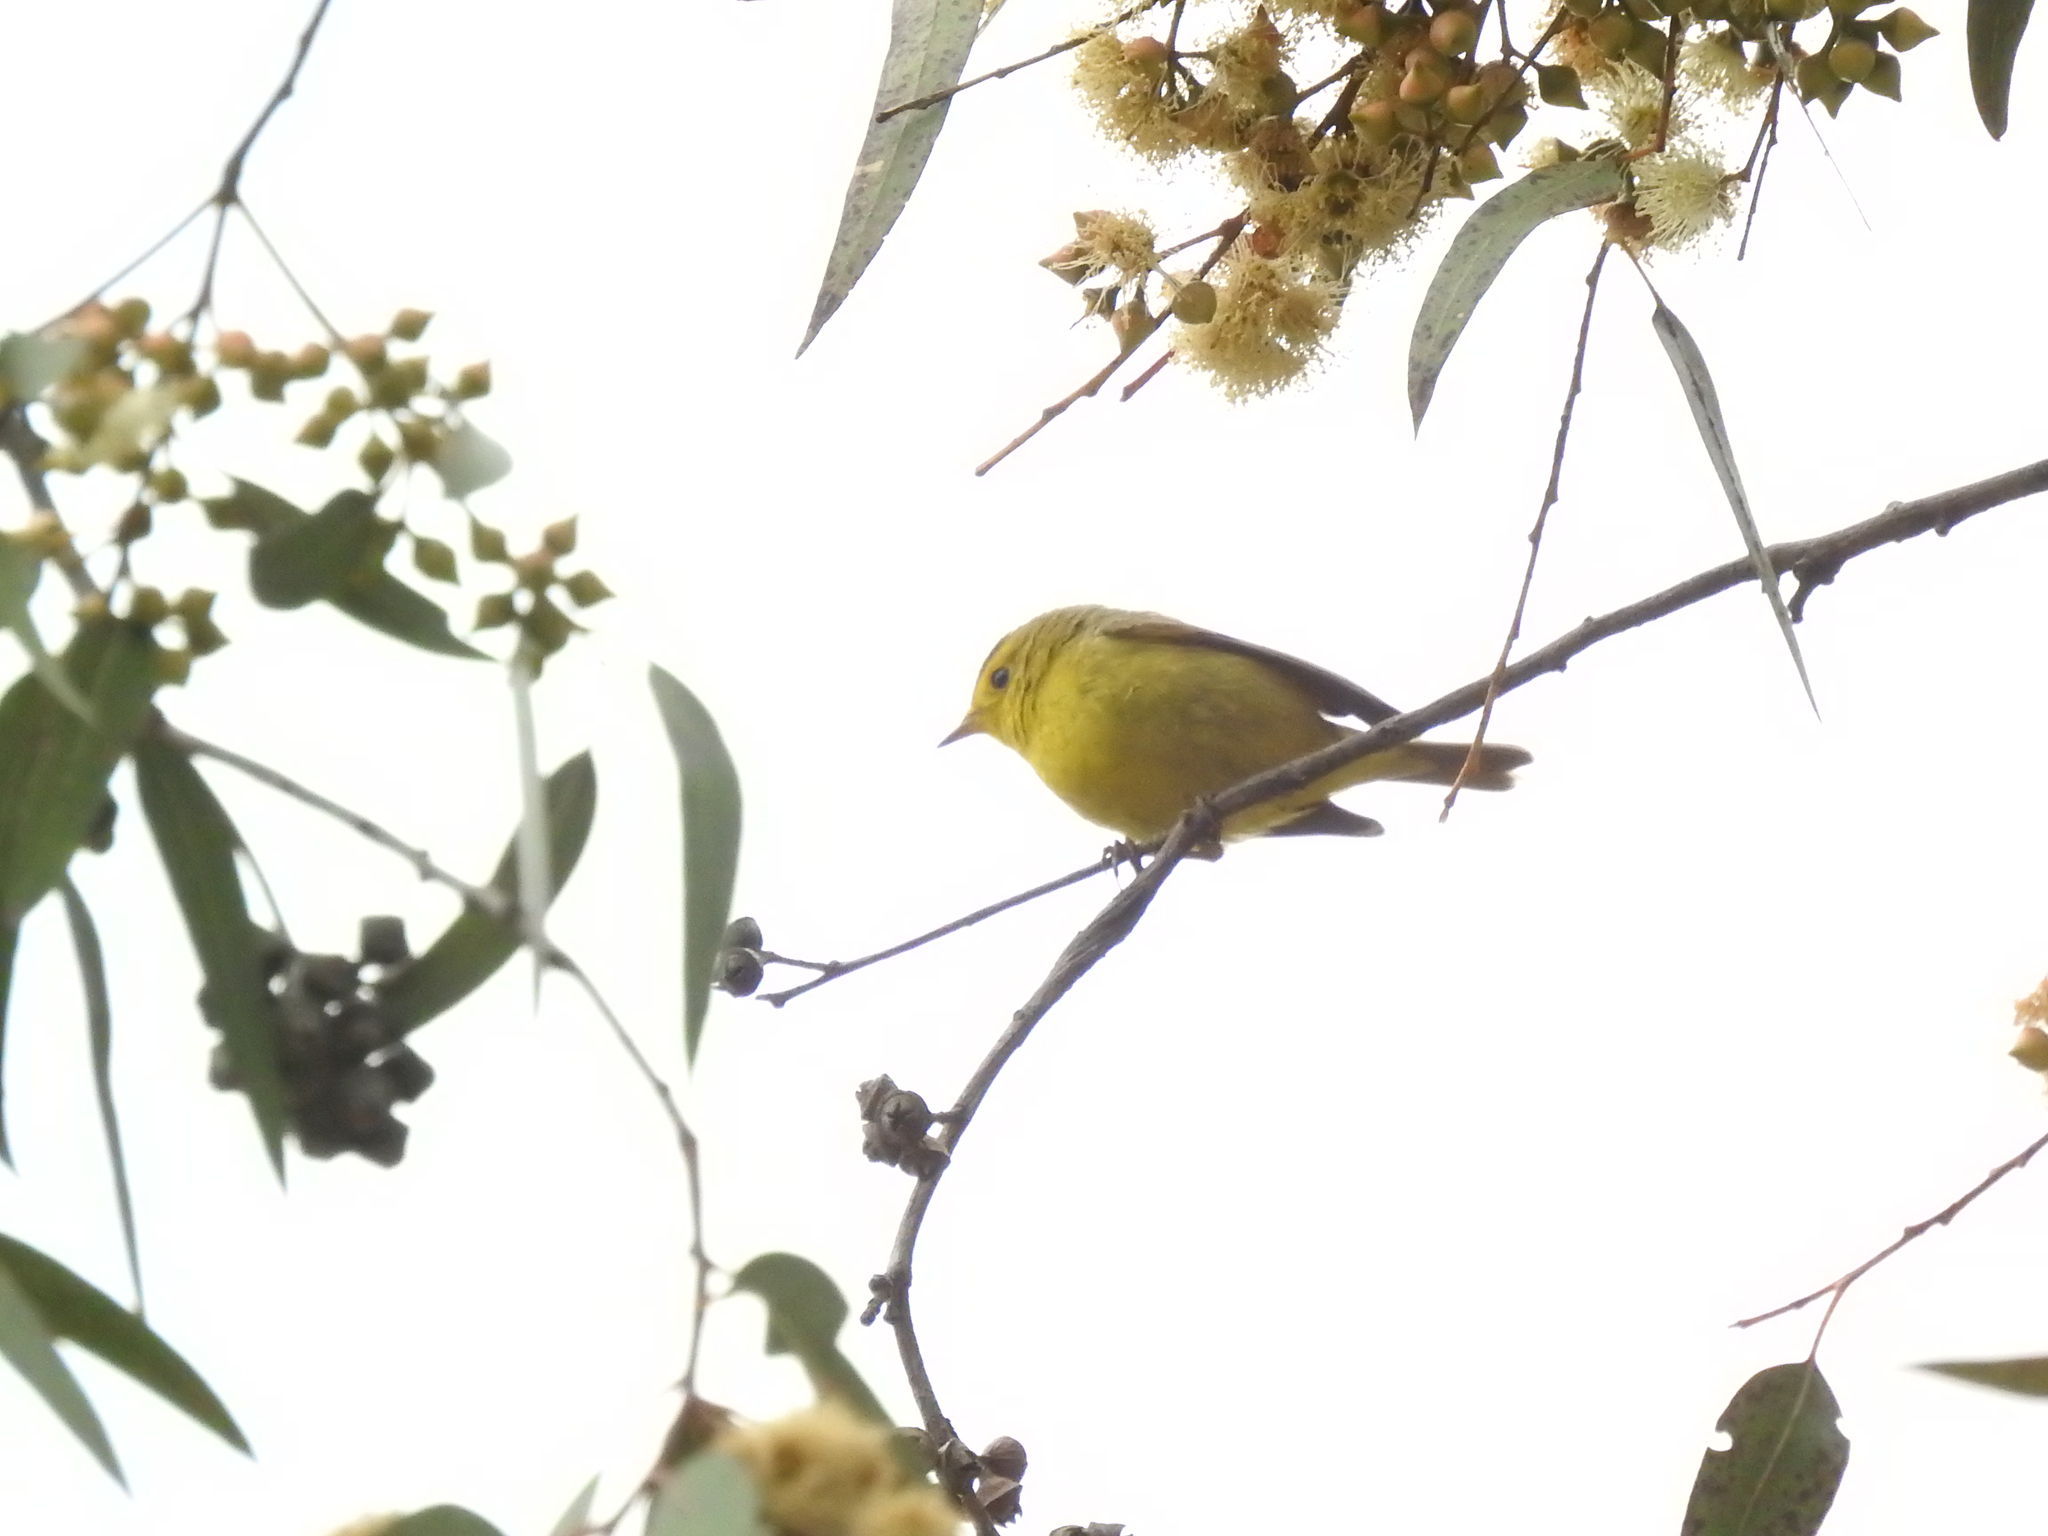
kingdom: Animalia
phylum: Chordata
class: Aves
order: Passeriformes
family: Parulidae
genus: Cardellina
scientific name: Cardellina pusilla
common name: Wilson's warbler
